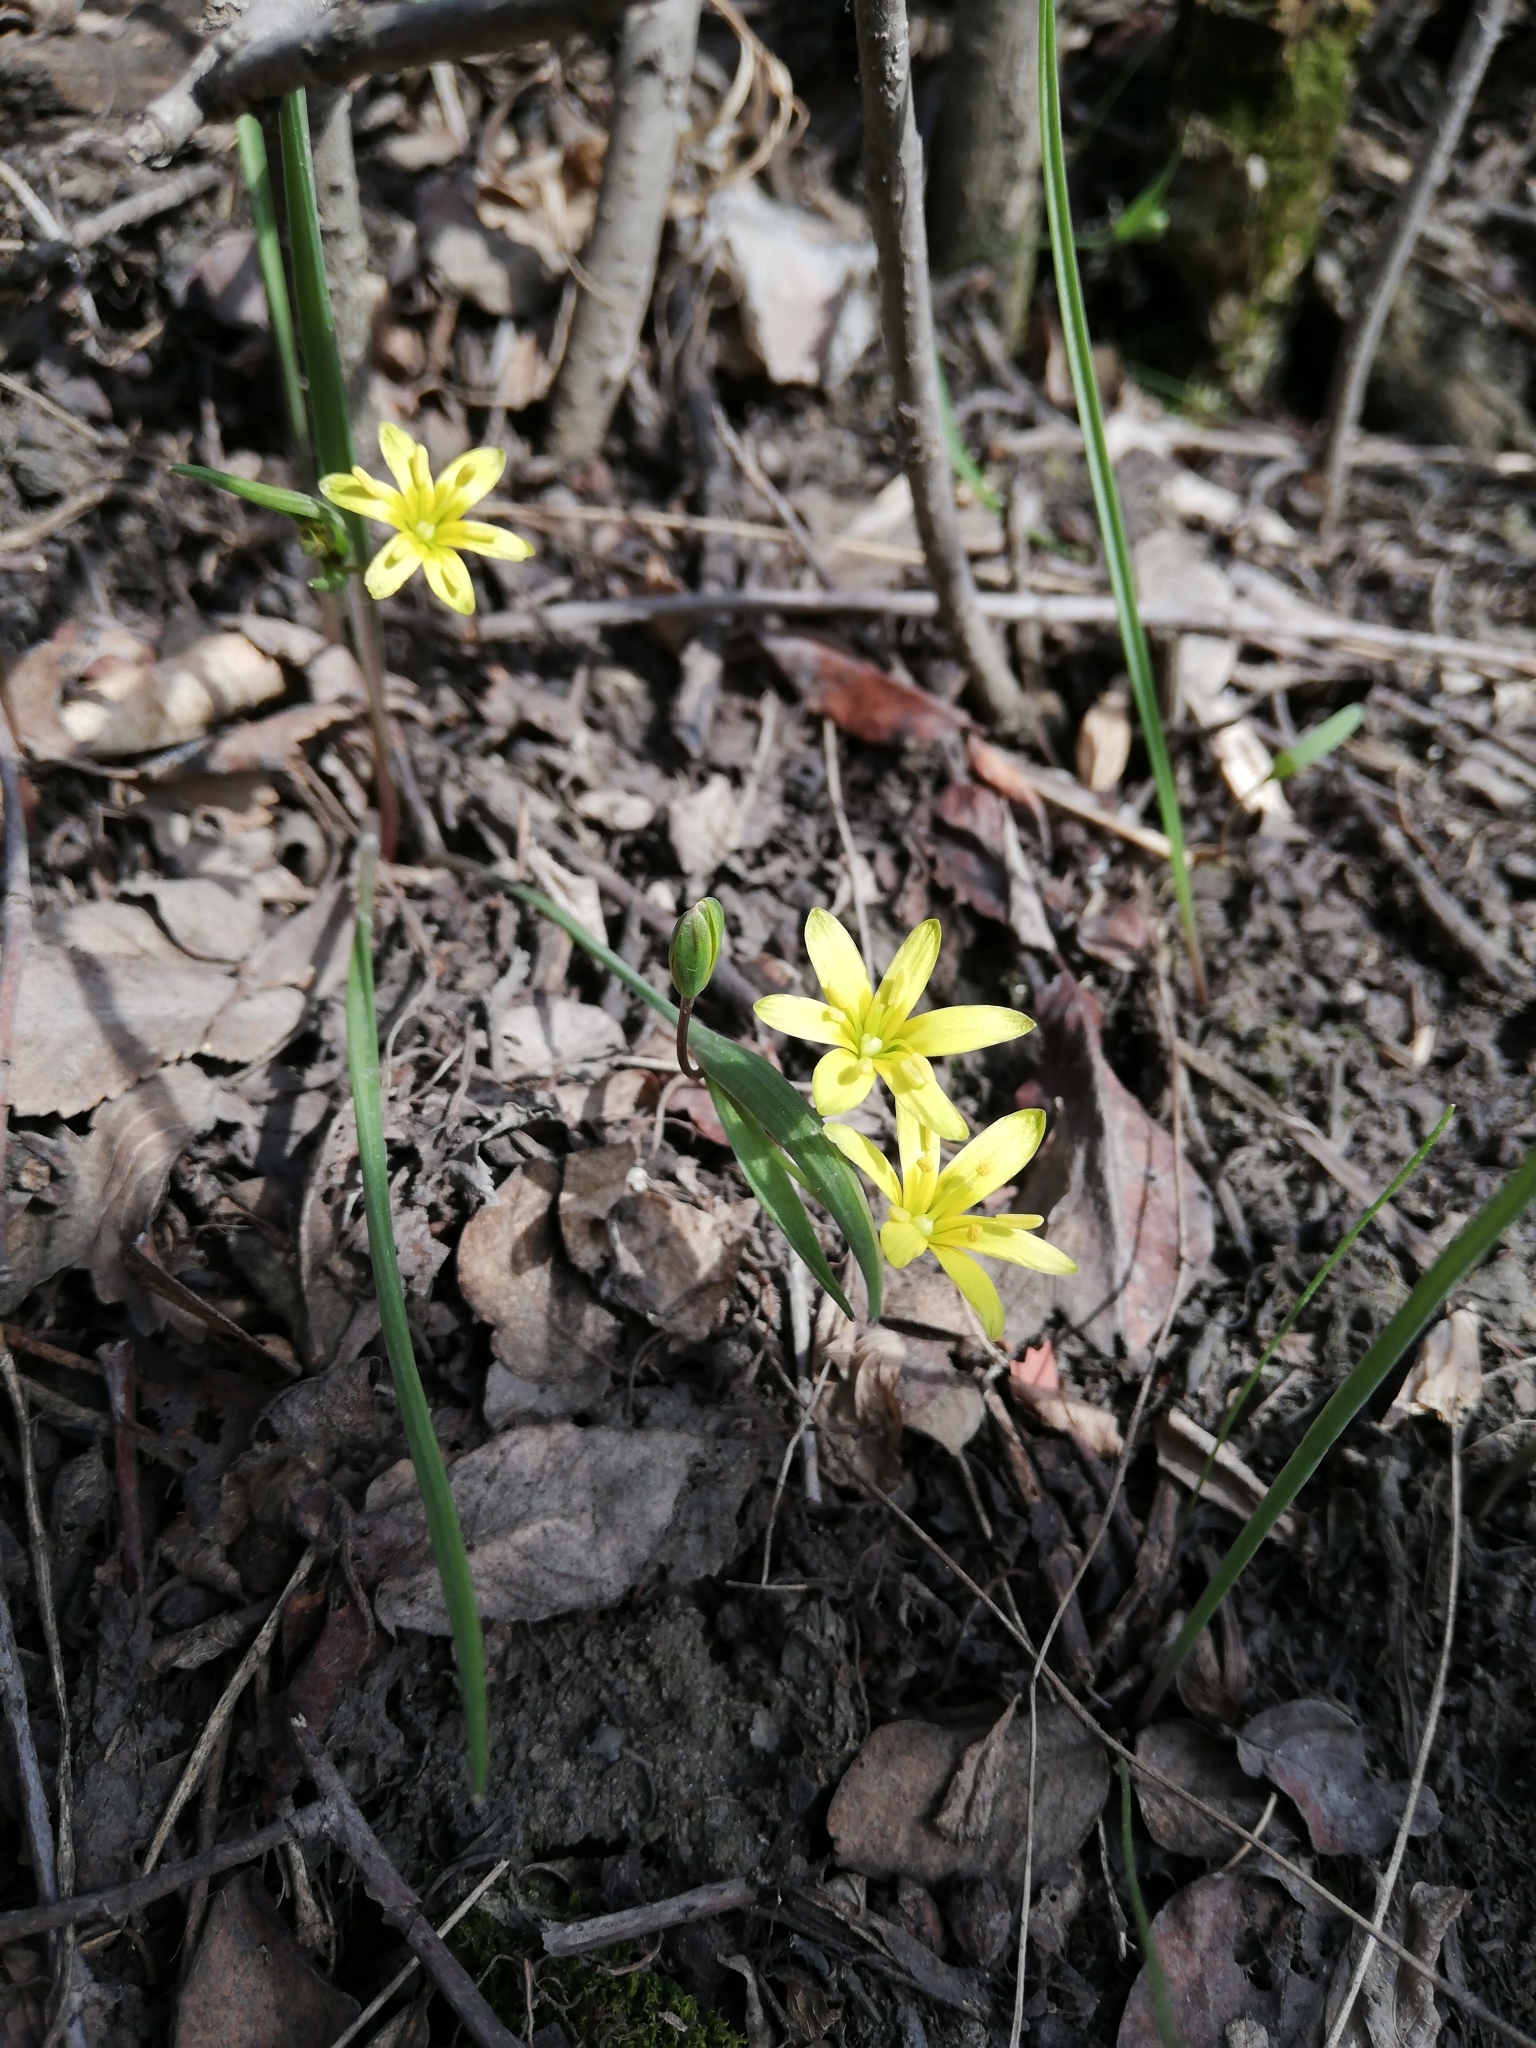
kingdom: Plantae
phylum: Tracheophyta
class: Liliopsida
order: Liliales
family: Liliaceae
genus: Gagea
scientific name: Gagea granulosa
